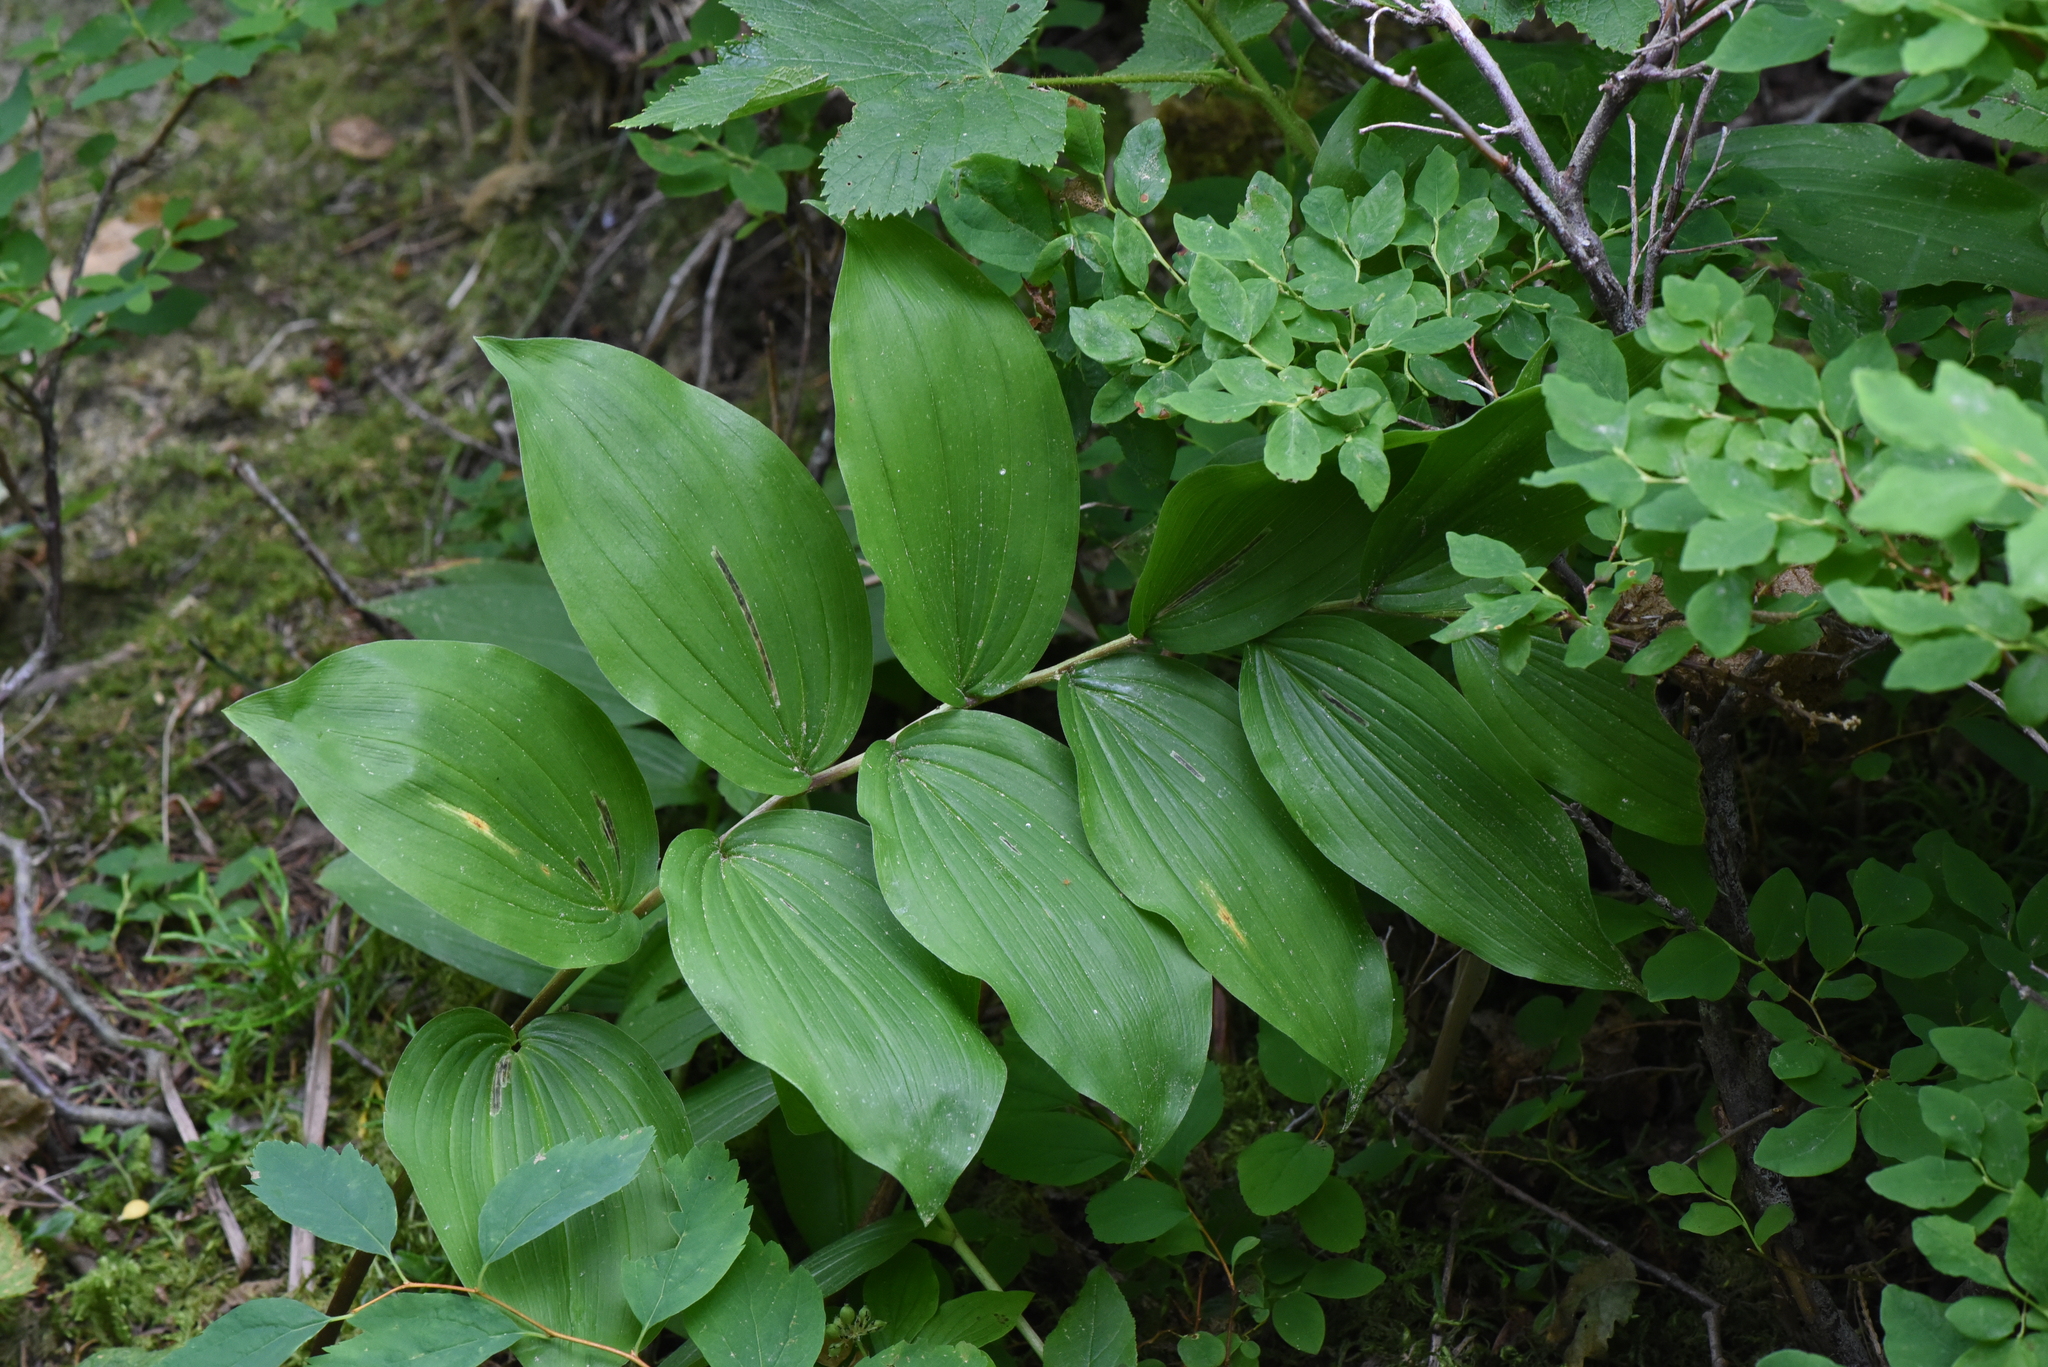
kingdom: Plantae
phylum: Tracheophyta
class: Liliopsida
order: Asparagales
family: Asparagaceae
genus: Maianthemum
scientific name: Maianthemum racemosum
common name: False spikenard
